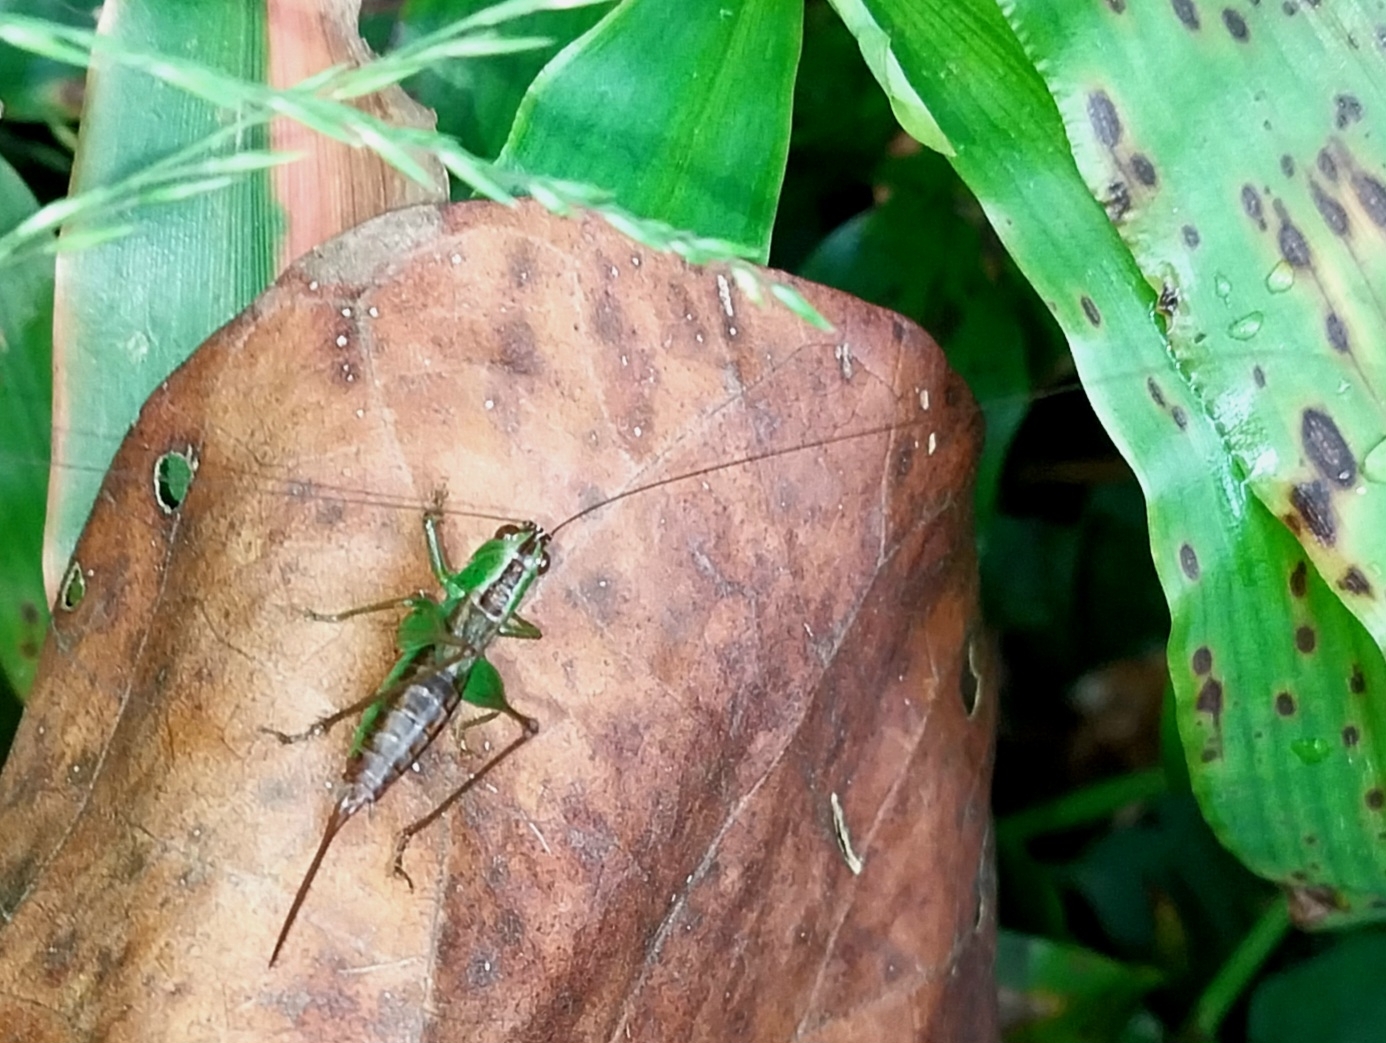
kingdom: Animalia
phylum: Arthropoda
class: Insecta
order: Orthoptera
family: Tettigoniidae
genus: Conocephalus
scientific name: Conocephalus saltator
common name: Katydid
